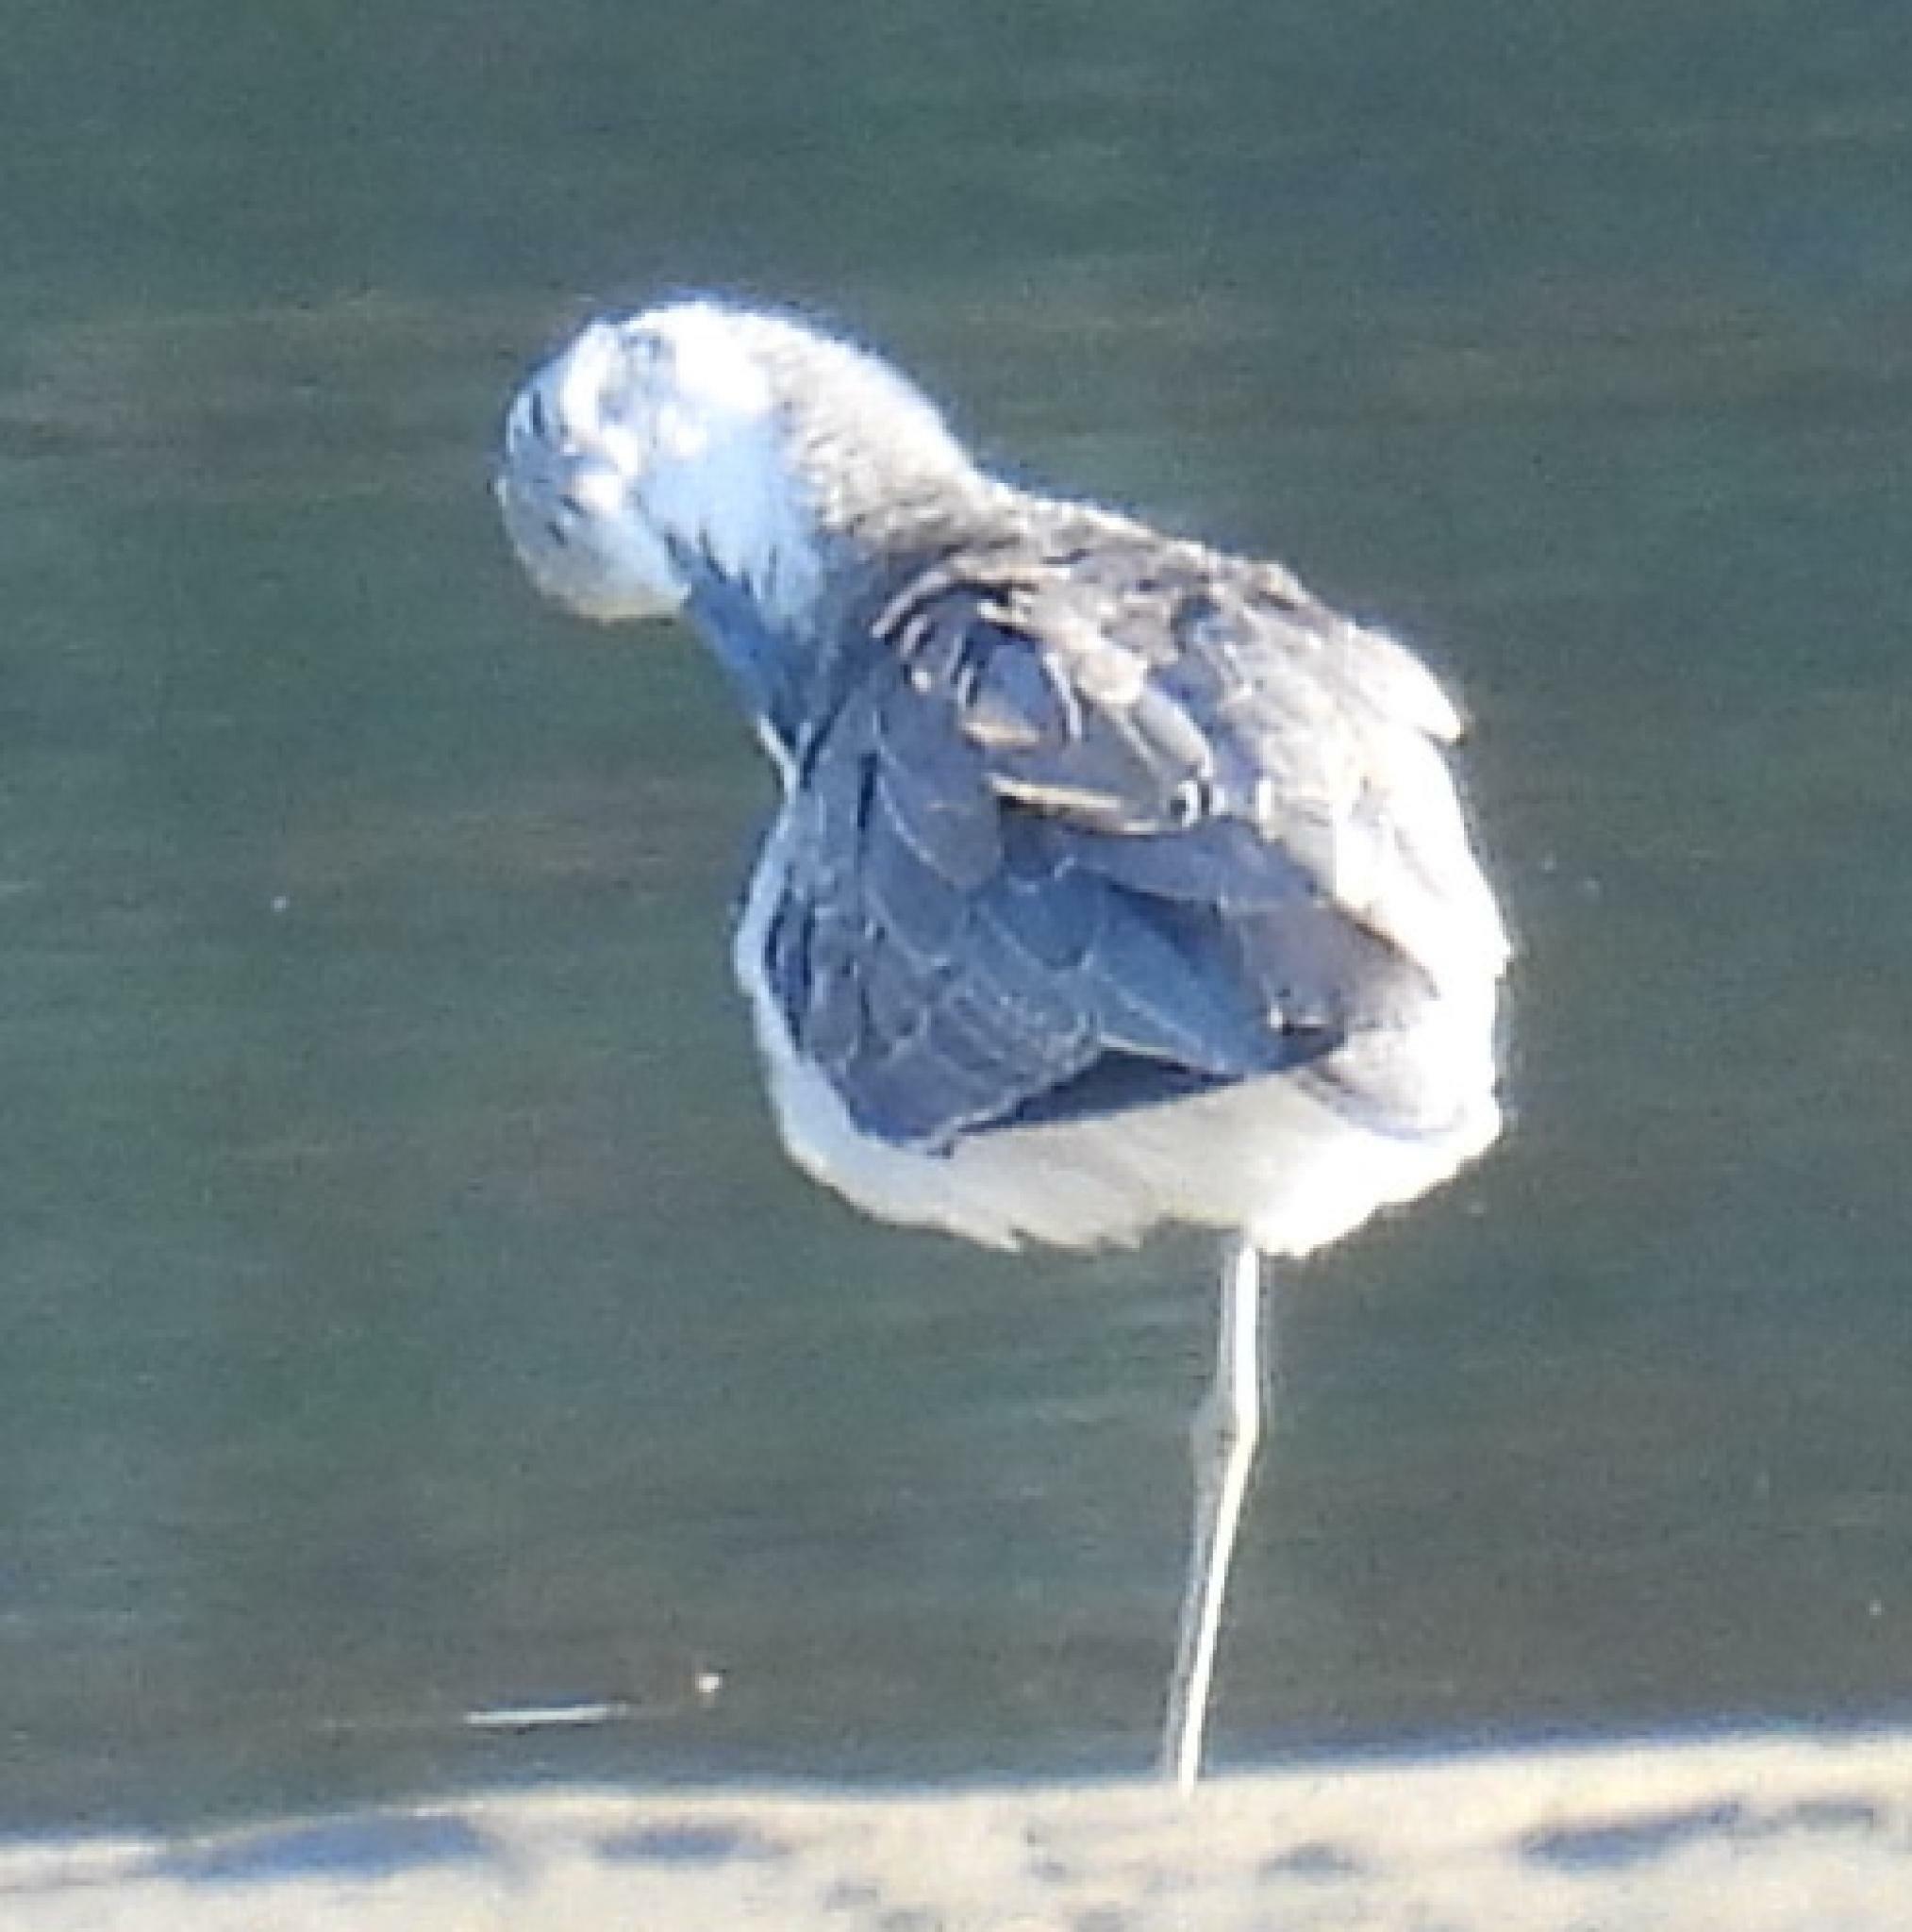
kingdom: Animalia
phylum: Chordata
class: Aves
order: Charadriiformes
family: Scolopacidae
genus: Tringa
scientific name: Tringa nebularia
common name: Common greenshank
